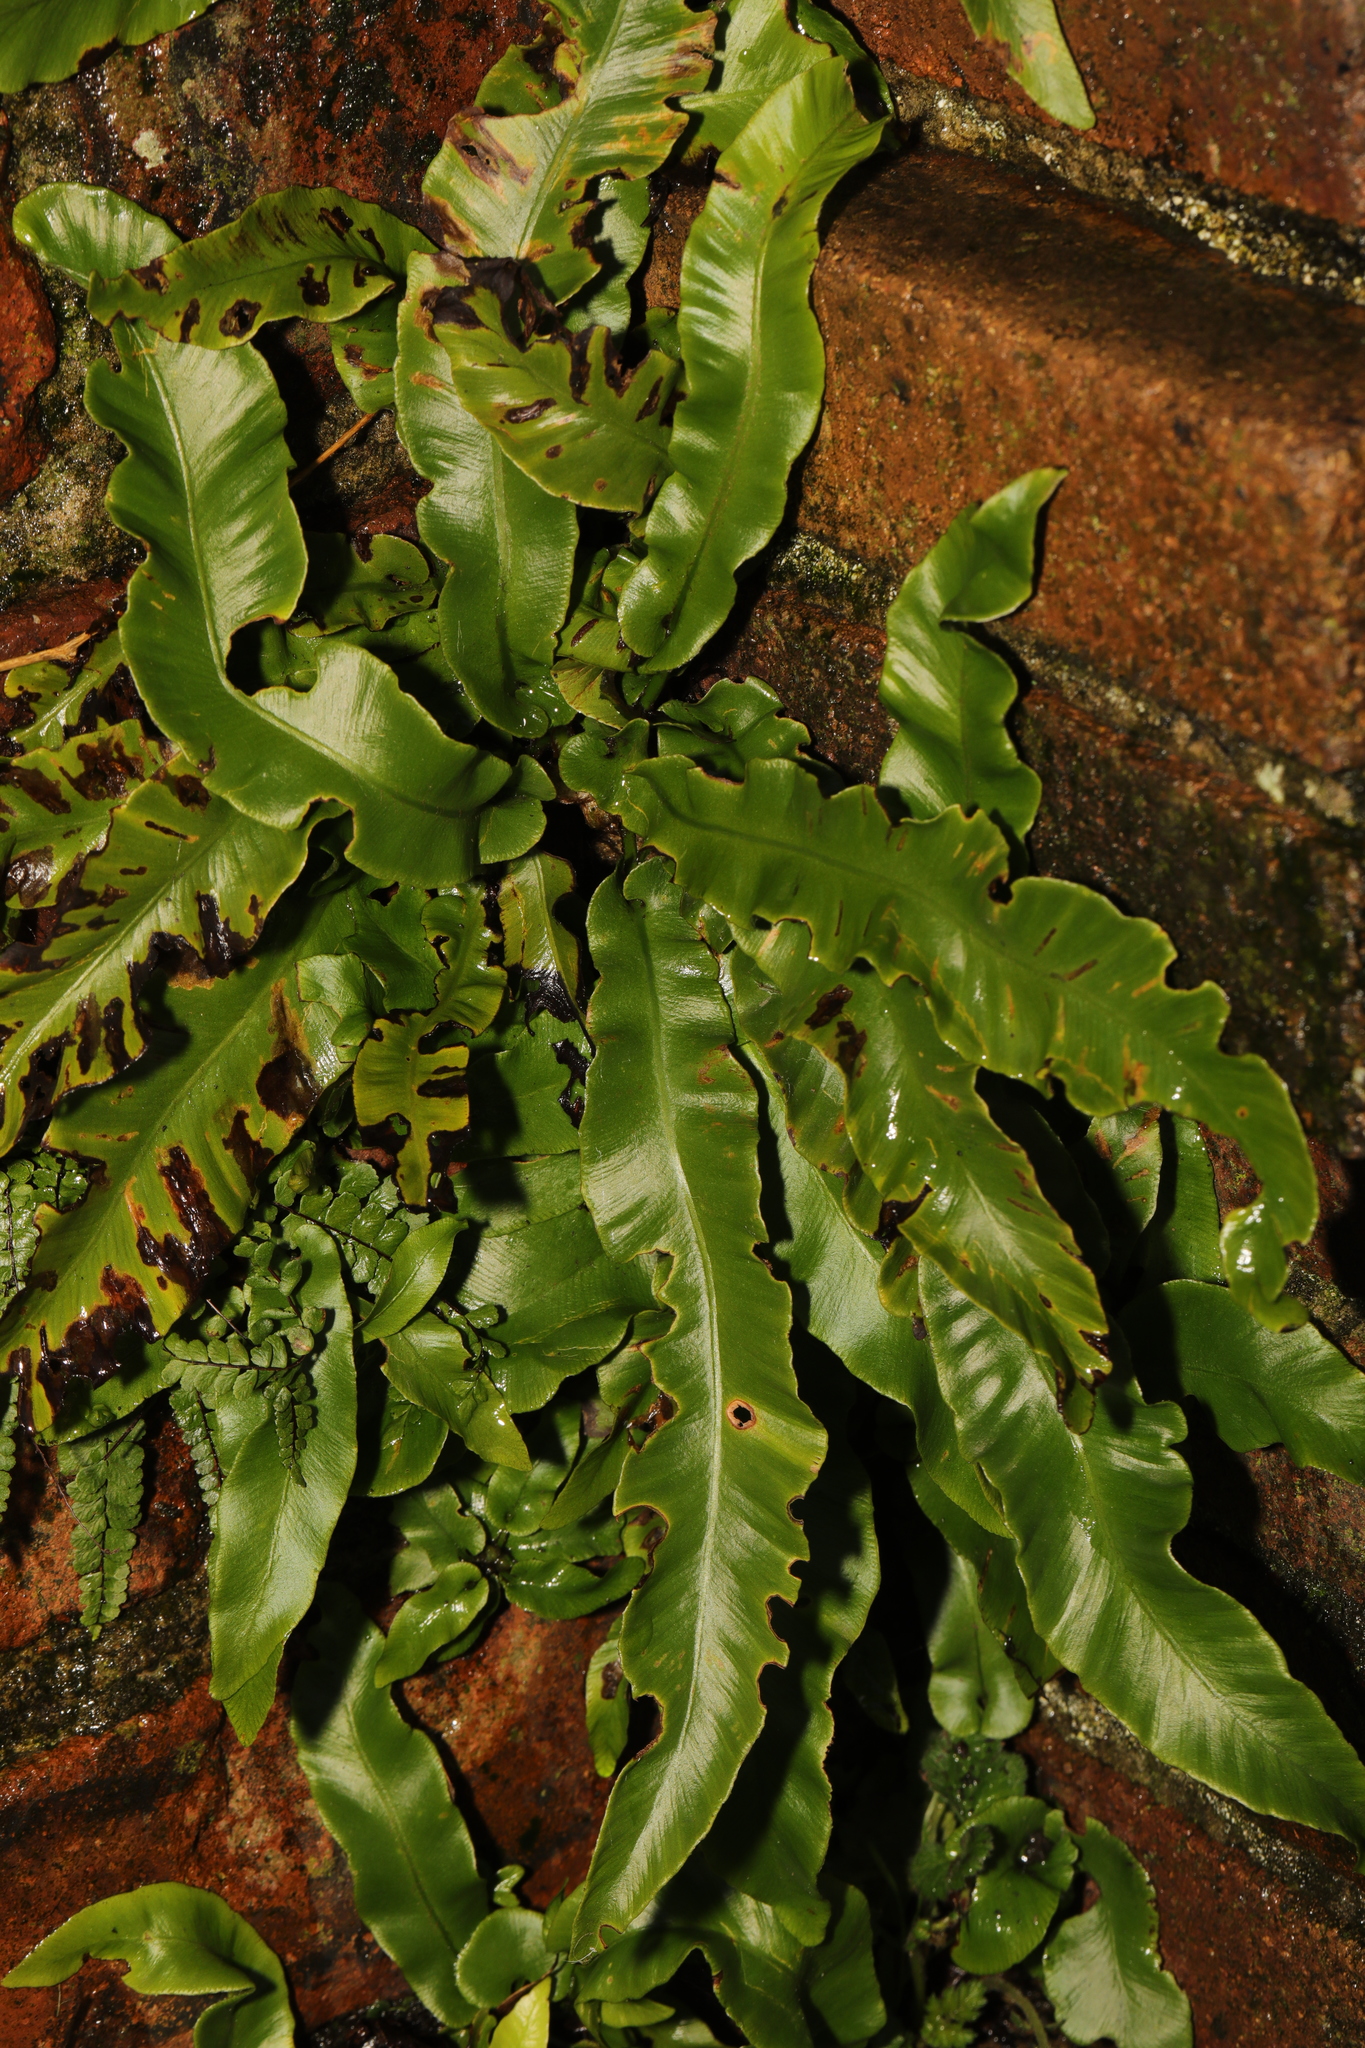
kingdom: Plantae
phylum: Tracheophyta
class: Polypodiopsida
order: Polypodiales
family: Aspleniaceae
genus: Asplenium
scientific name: Asplenium scolopendrium
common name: Hart's-tongue fern
